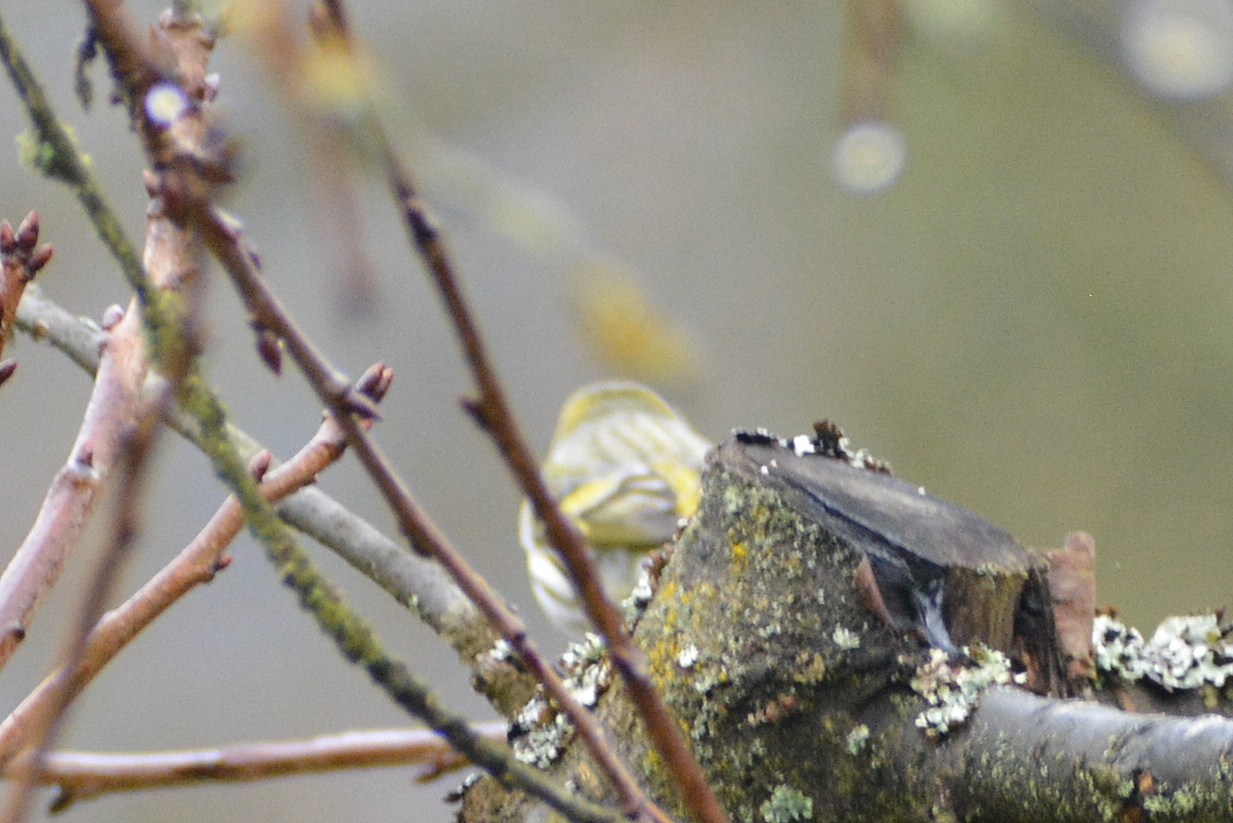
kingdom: Animalia
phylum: Chordata
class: Aves
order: Passeriformes
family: Fringillidae
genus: Spinus
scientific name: Spinus spinus
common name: Eurasian siskin
